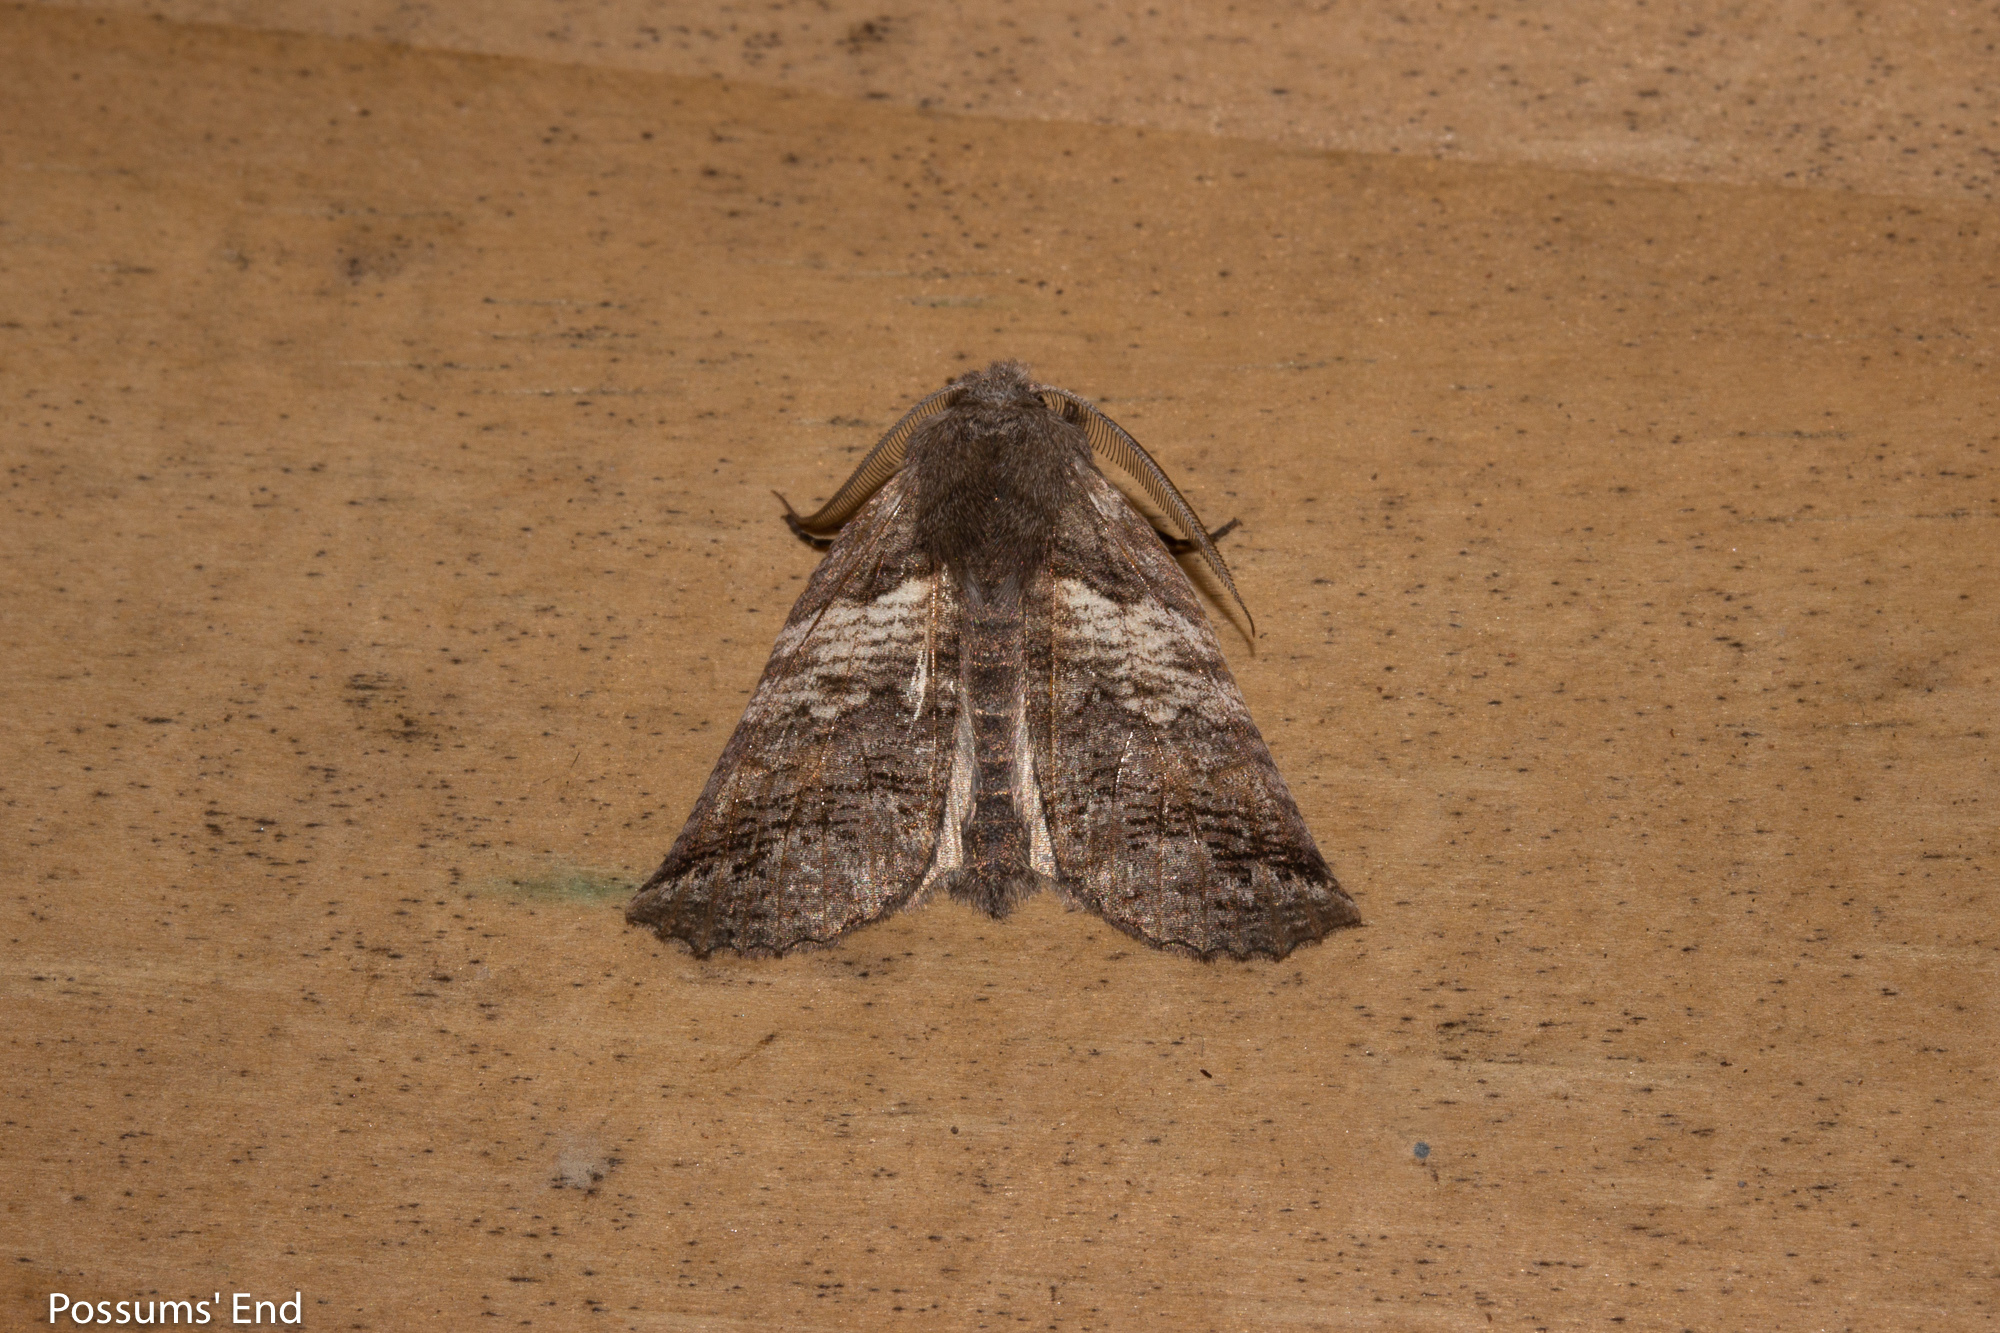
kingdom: Animalia
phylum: Arthropoda
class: Insecta
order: Lepidoptera
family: Geometridae
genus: Declana
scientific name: Declana
